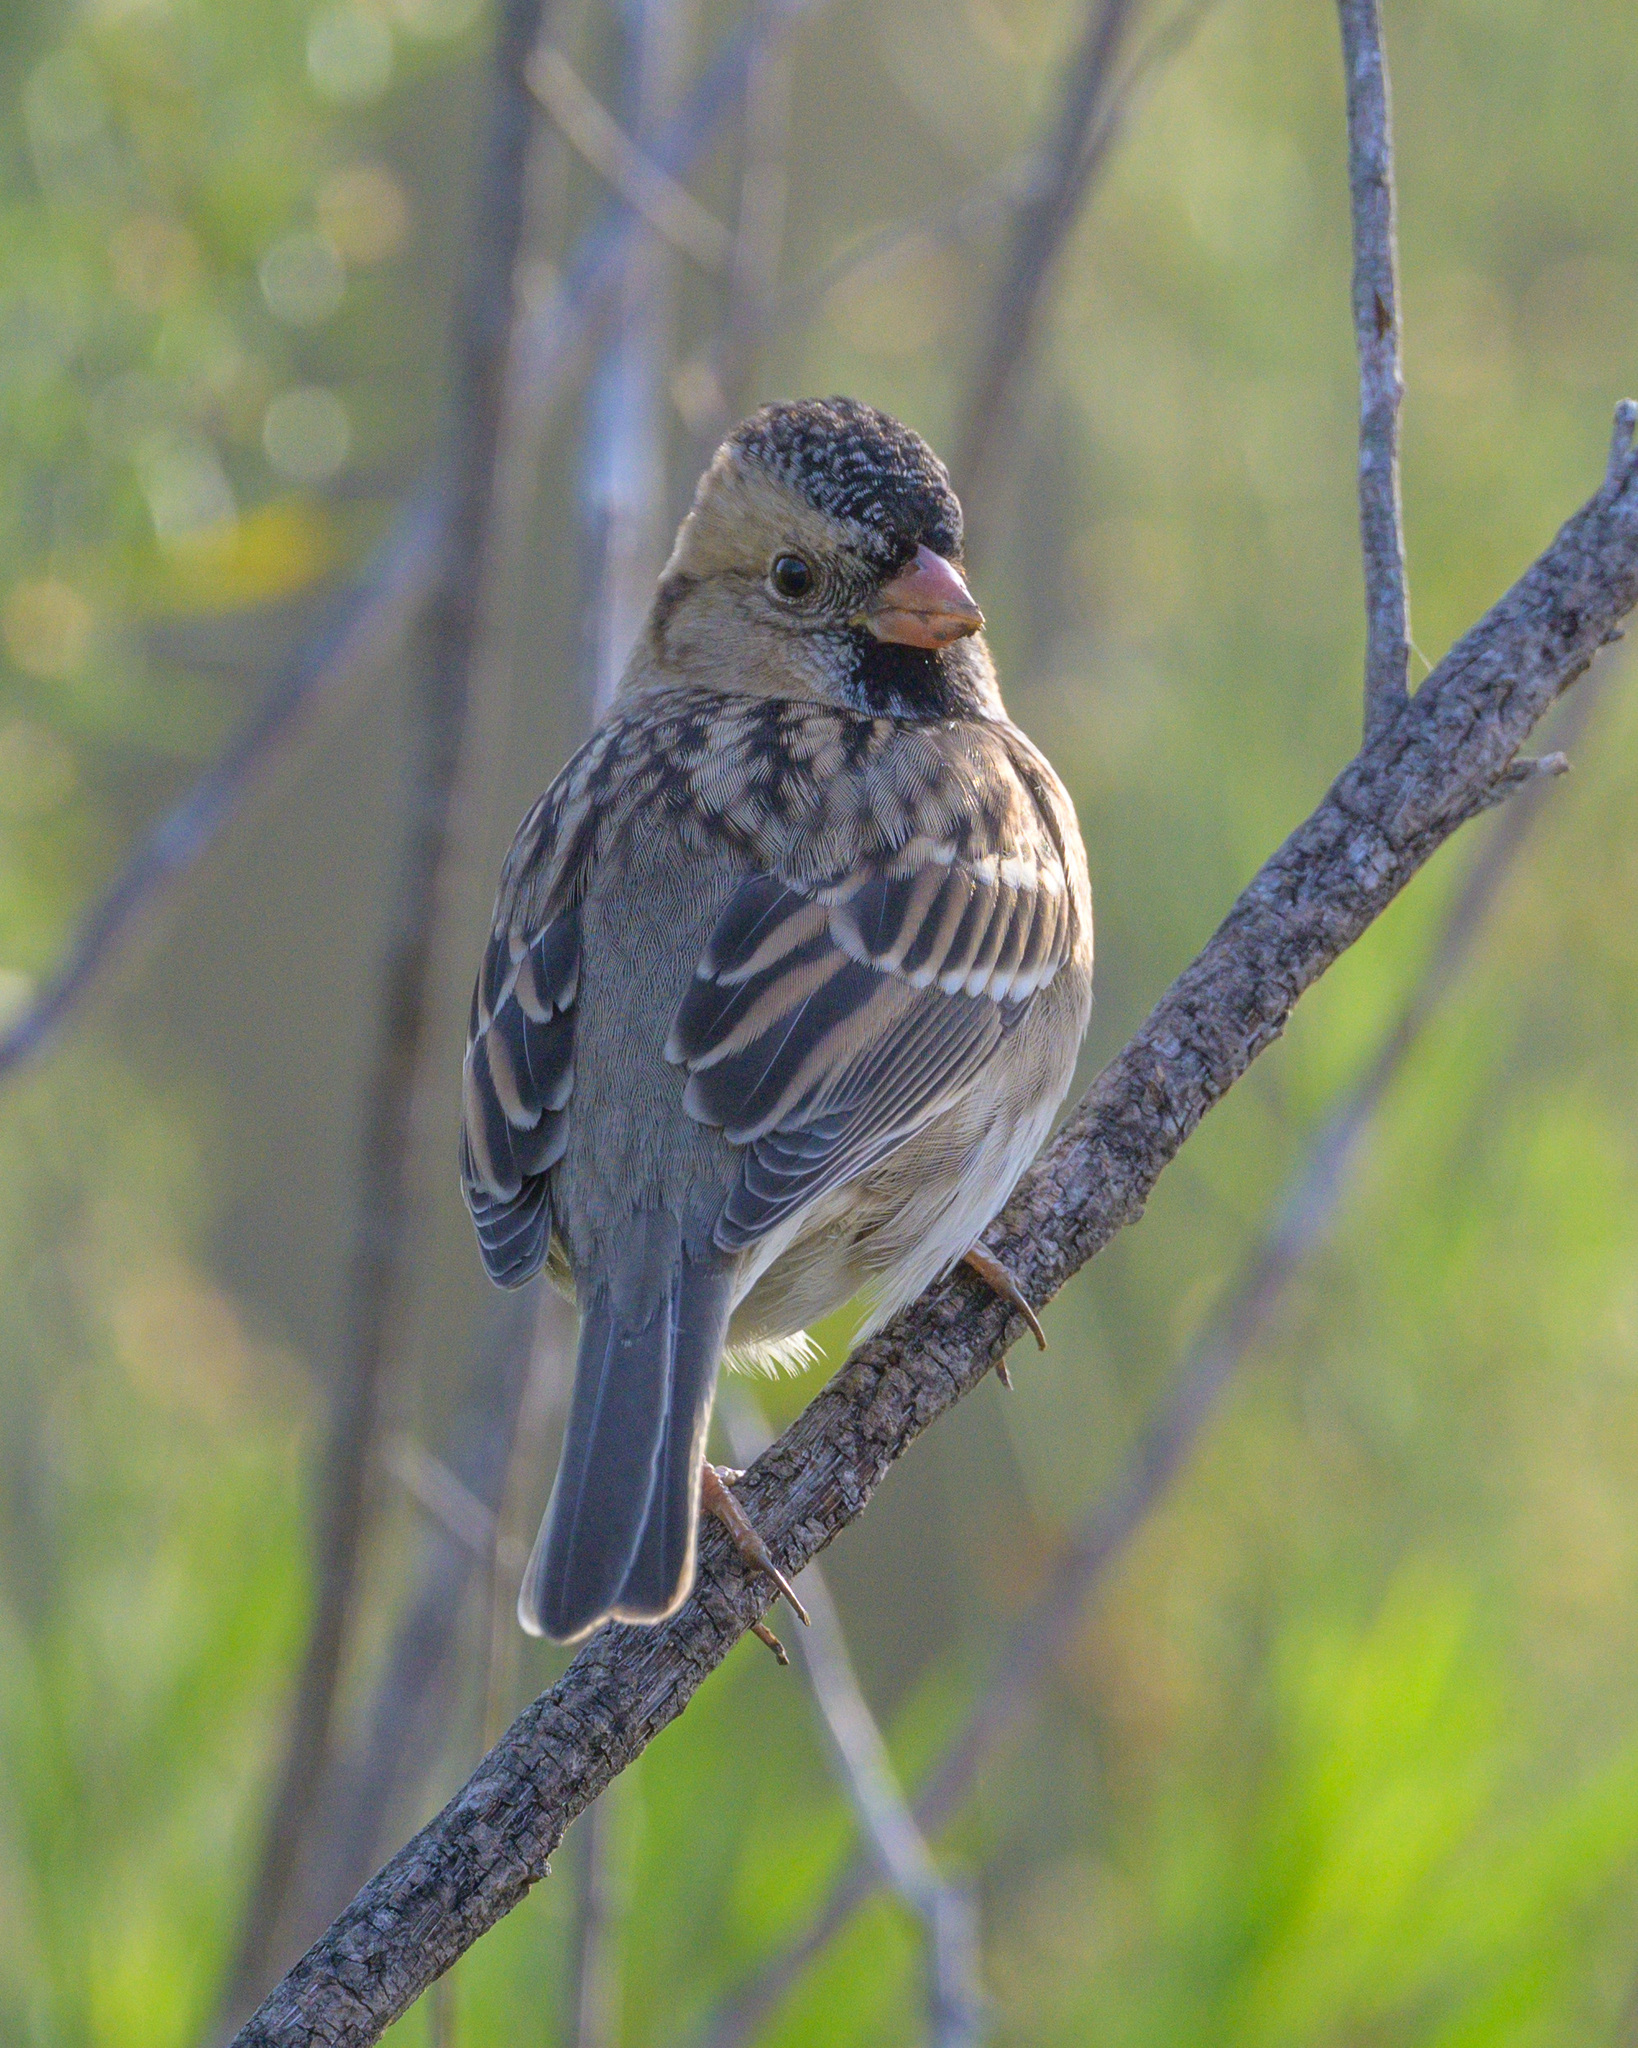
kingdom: Animalia
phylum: Chordata
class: Aves
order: Passeriformes
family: Passerellidae
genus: Zonotrichia
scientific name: Zonotrichia querula
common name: Harris's sparrow
